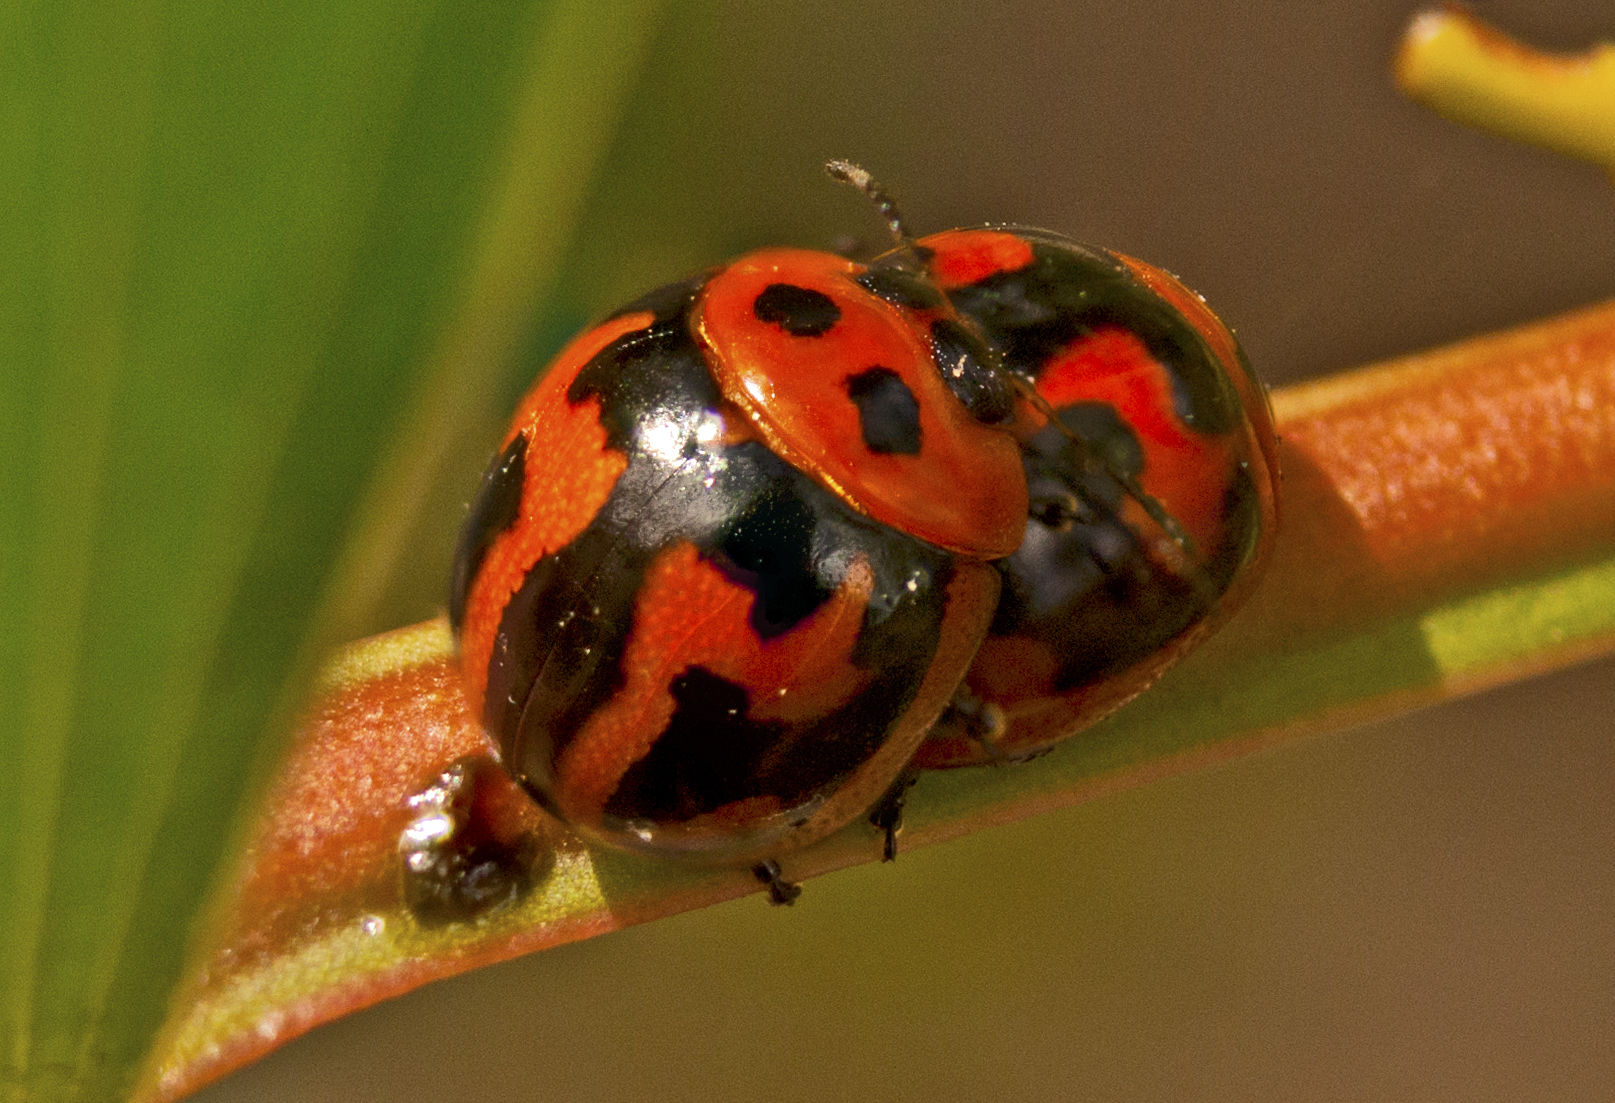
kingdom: Animalia
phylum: Arthropoda
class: Insecta
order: Coleoptera
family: Chrysomelidae
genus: Dicranosterna
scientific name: Dicranosterna
